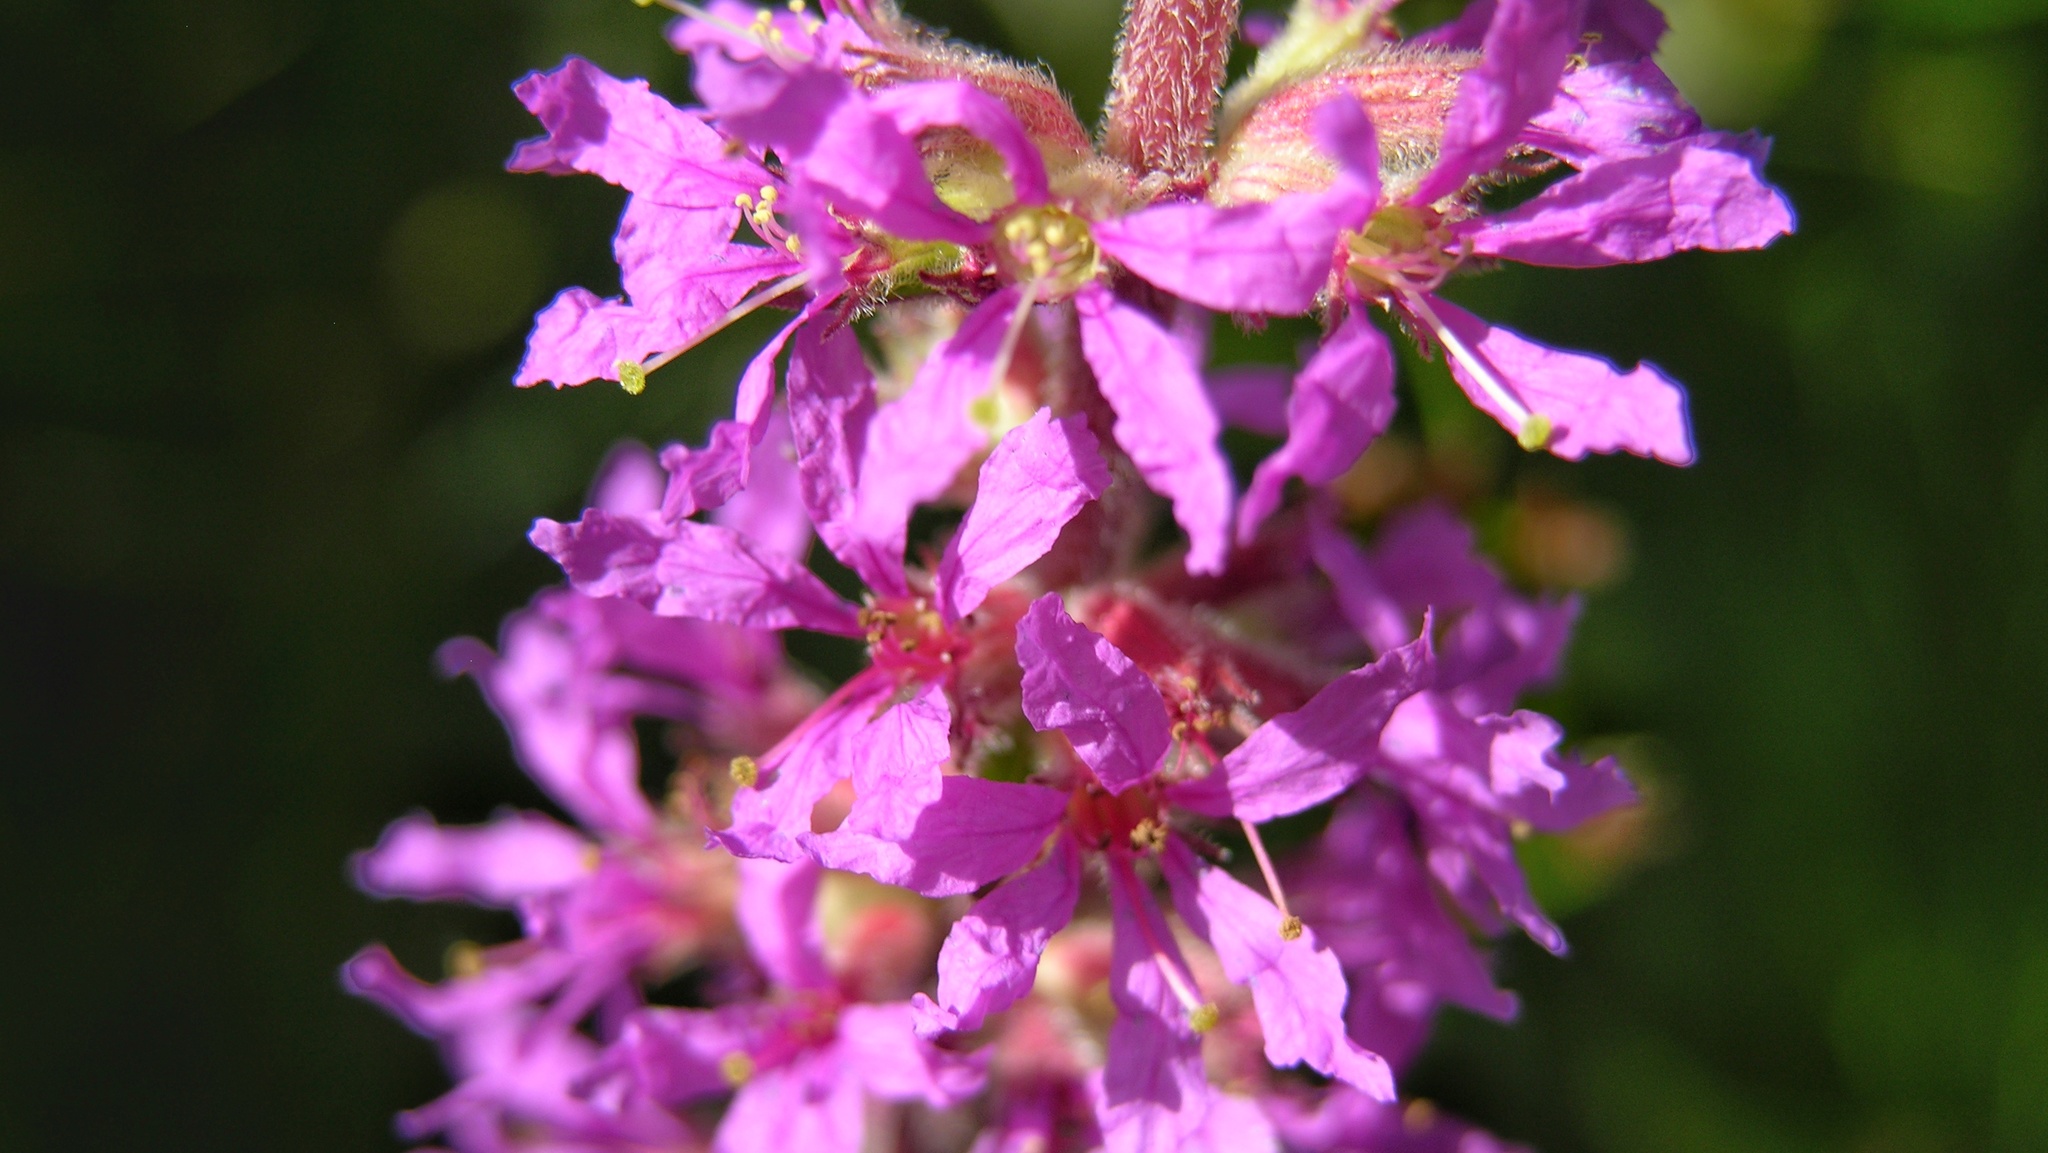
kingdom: Plantae
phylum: Tracheophyta
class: Magnoliopsida
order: Myrtales
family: Lythraceae
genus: Lythrum
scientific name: Lythrum salicaria
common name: Purple loosestrife
